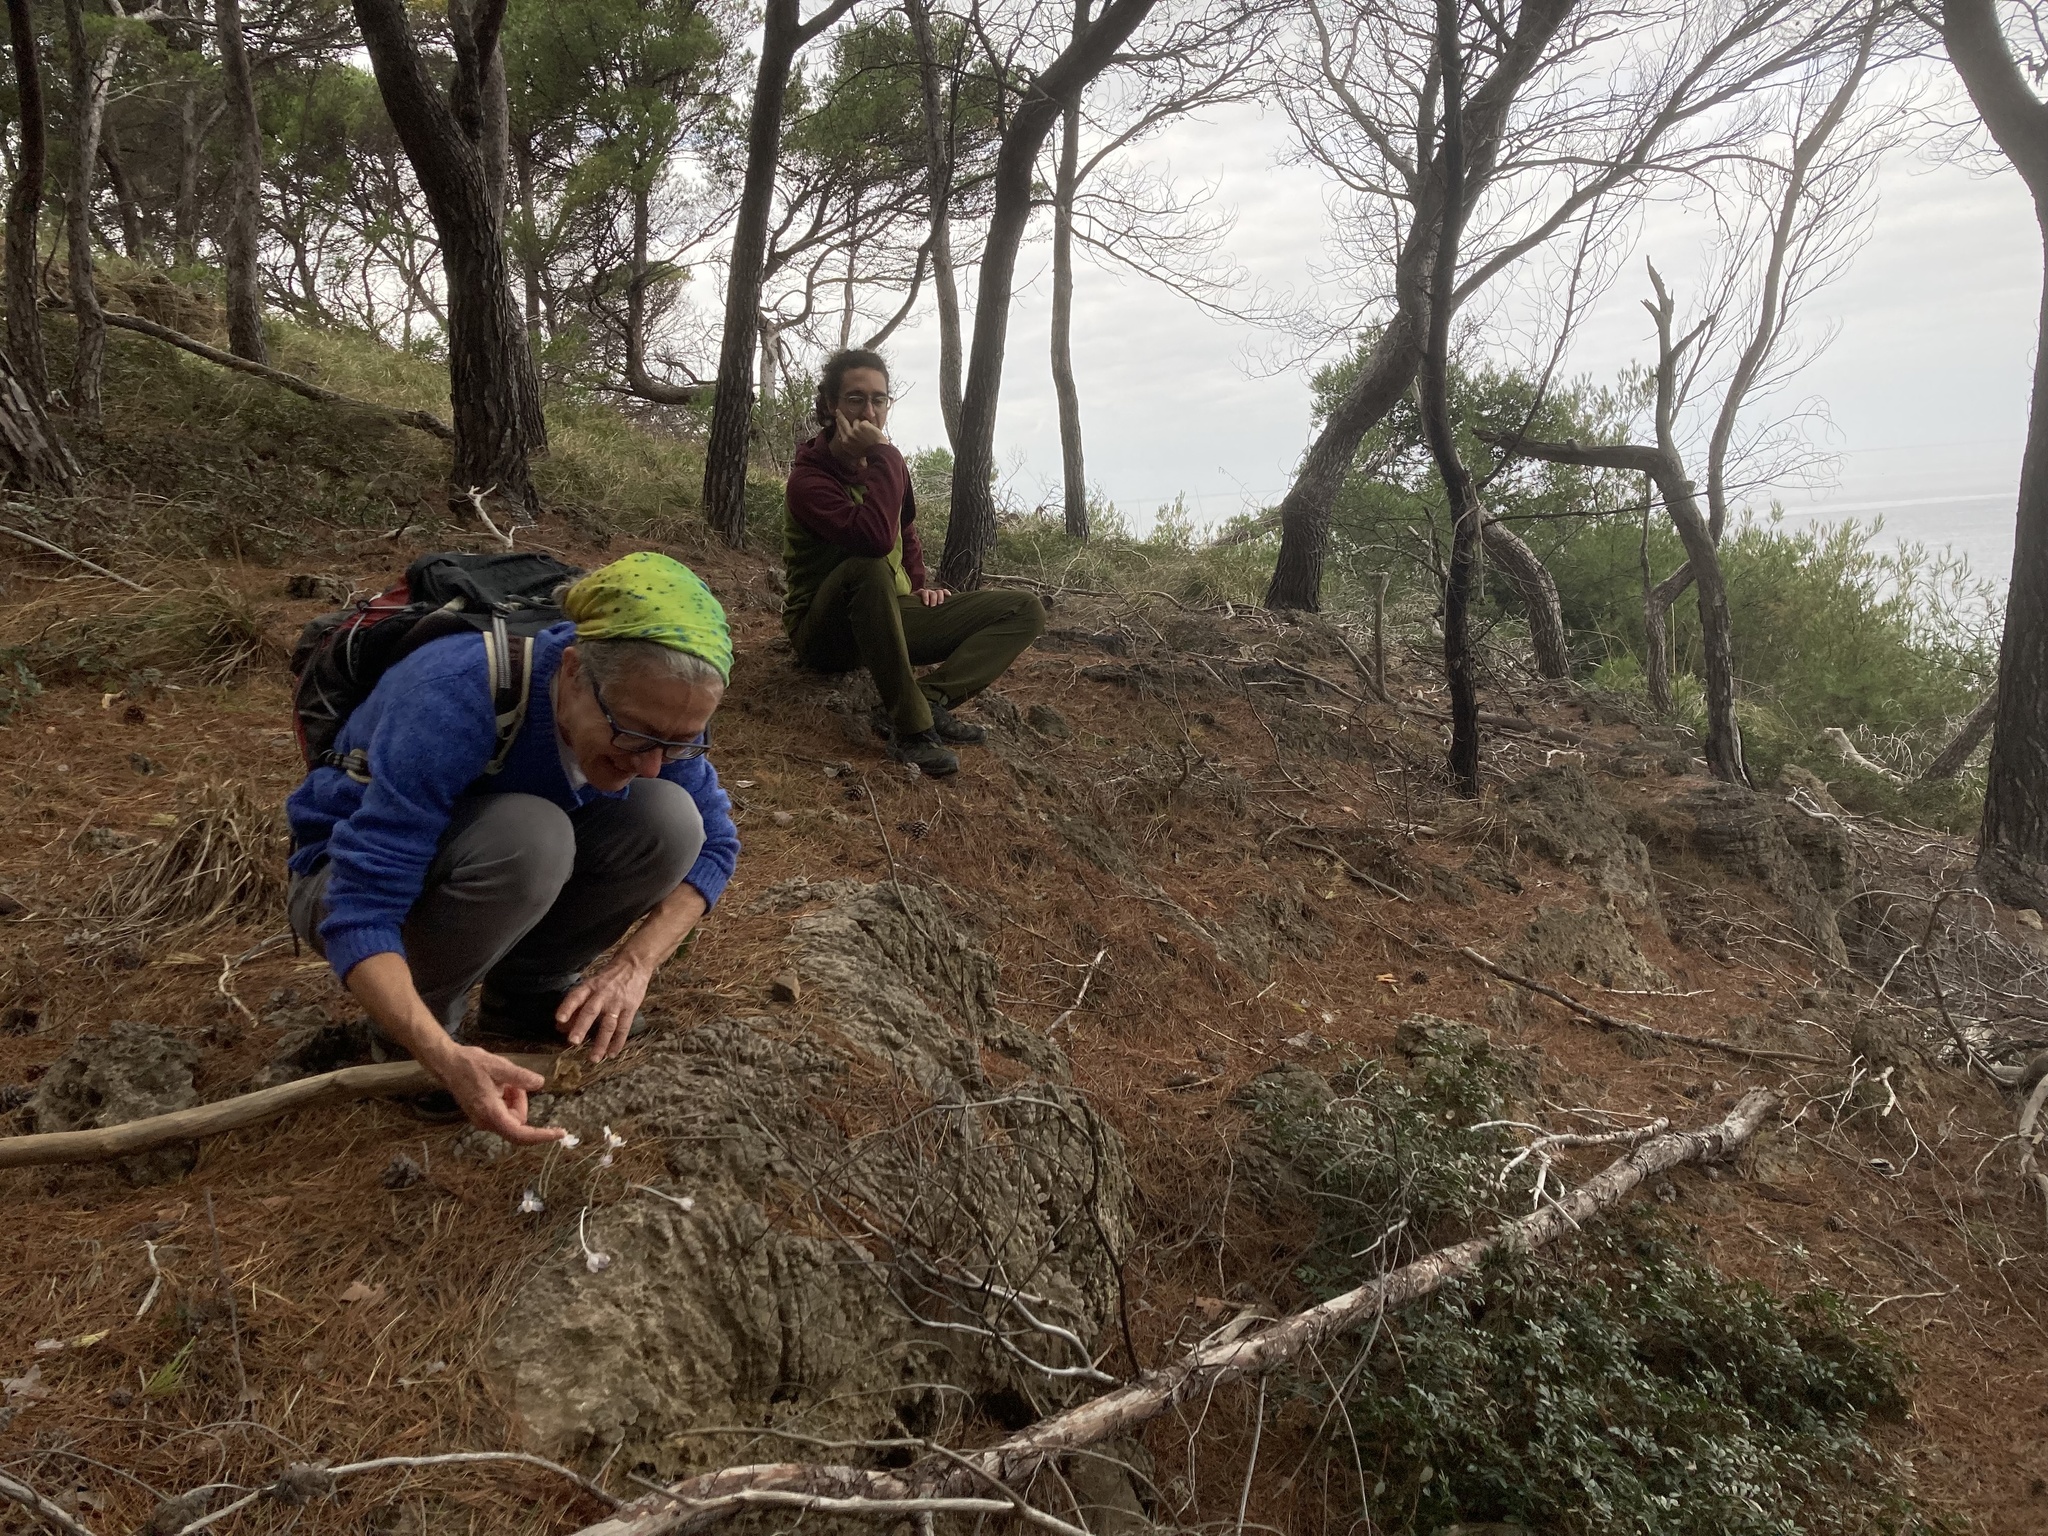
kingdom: Plantae
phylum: Tracheophyta
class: Liliopsida
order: Asparagales
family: Iridaceae
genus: Crocus
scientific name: Crocus cambessedesii
